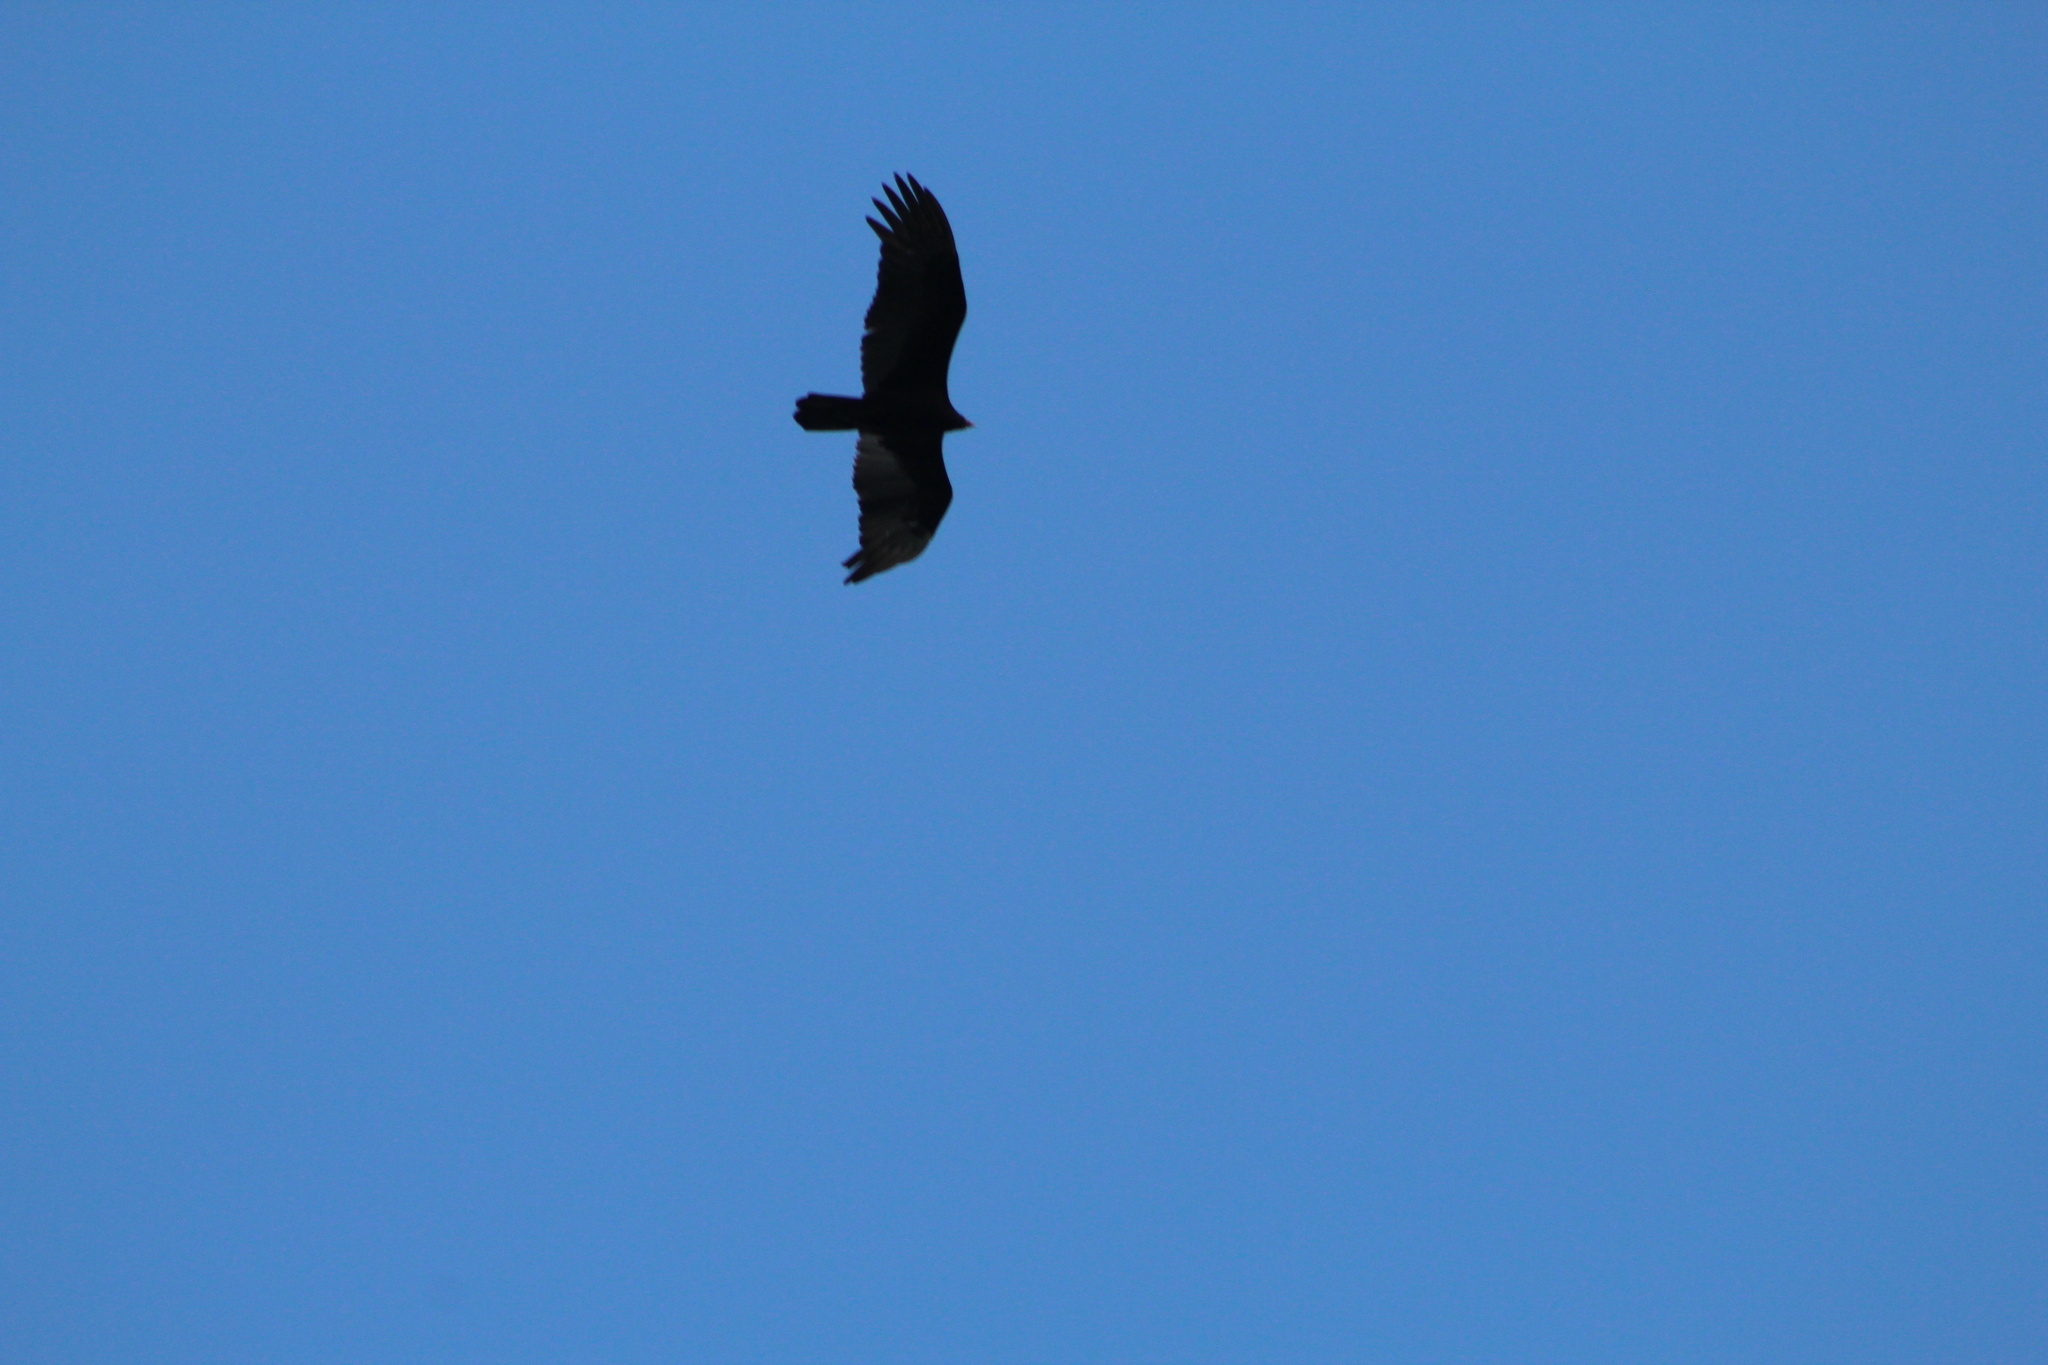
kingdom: Animalia
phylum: Chordata
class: Aves
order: Accipitriformes
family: Cathartidae
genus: Cathartes
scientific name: Cathartes aura
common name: Turkey vulture
